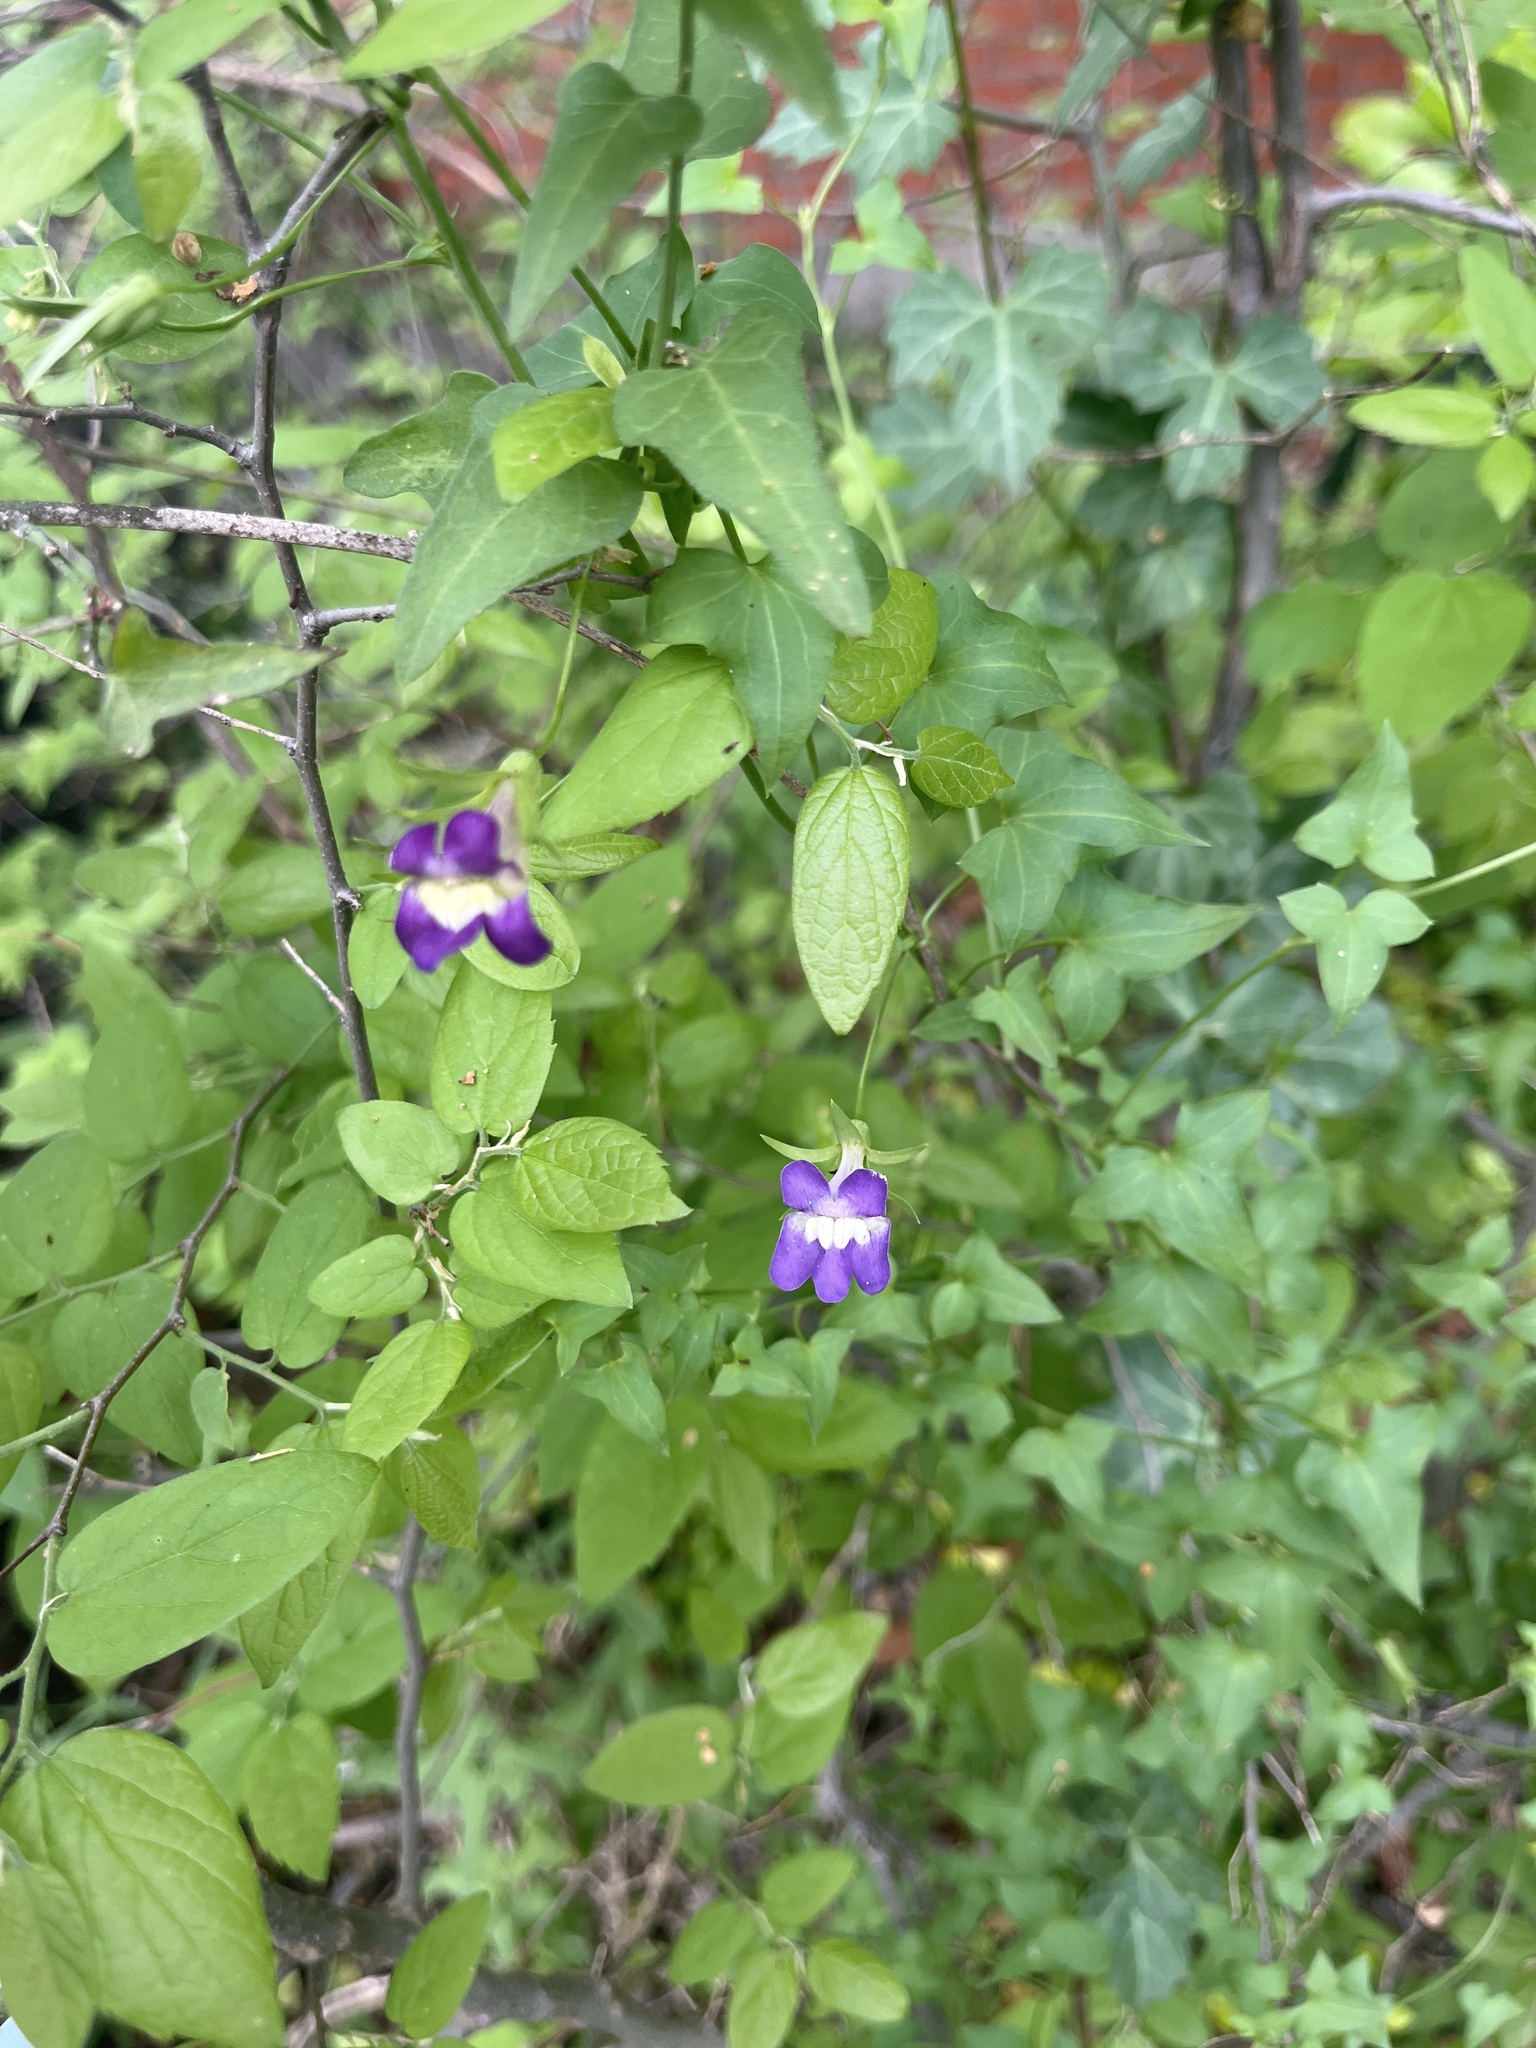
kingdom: Plantae
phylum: Tracheophyta
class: Magnoliopsida
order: Lamiales
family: Plantaginaceae
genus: Maurandella
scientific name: Maurandella antirrhiniflora
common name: Violet twining-snapdragon
